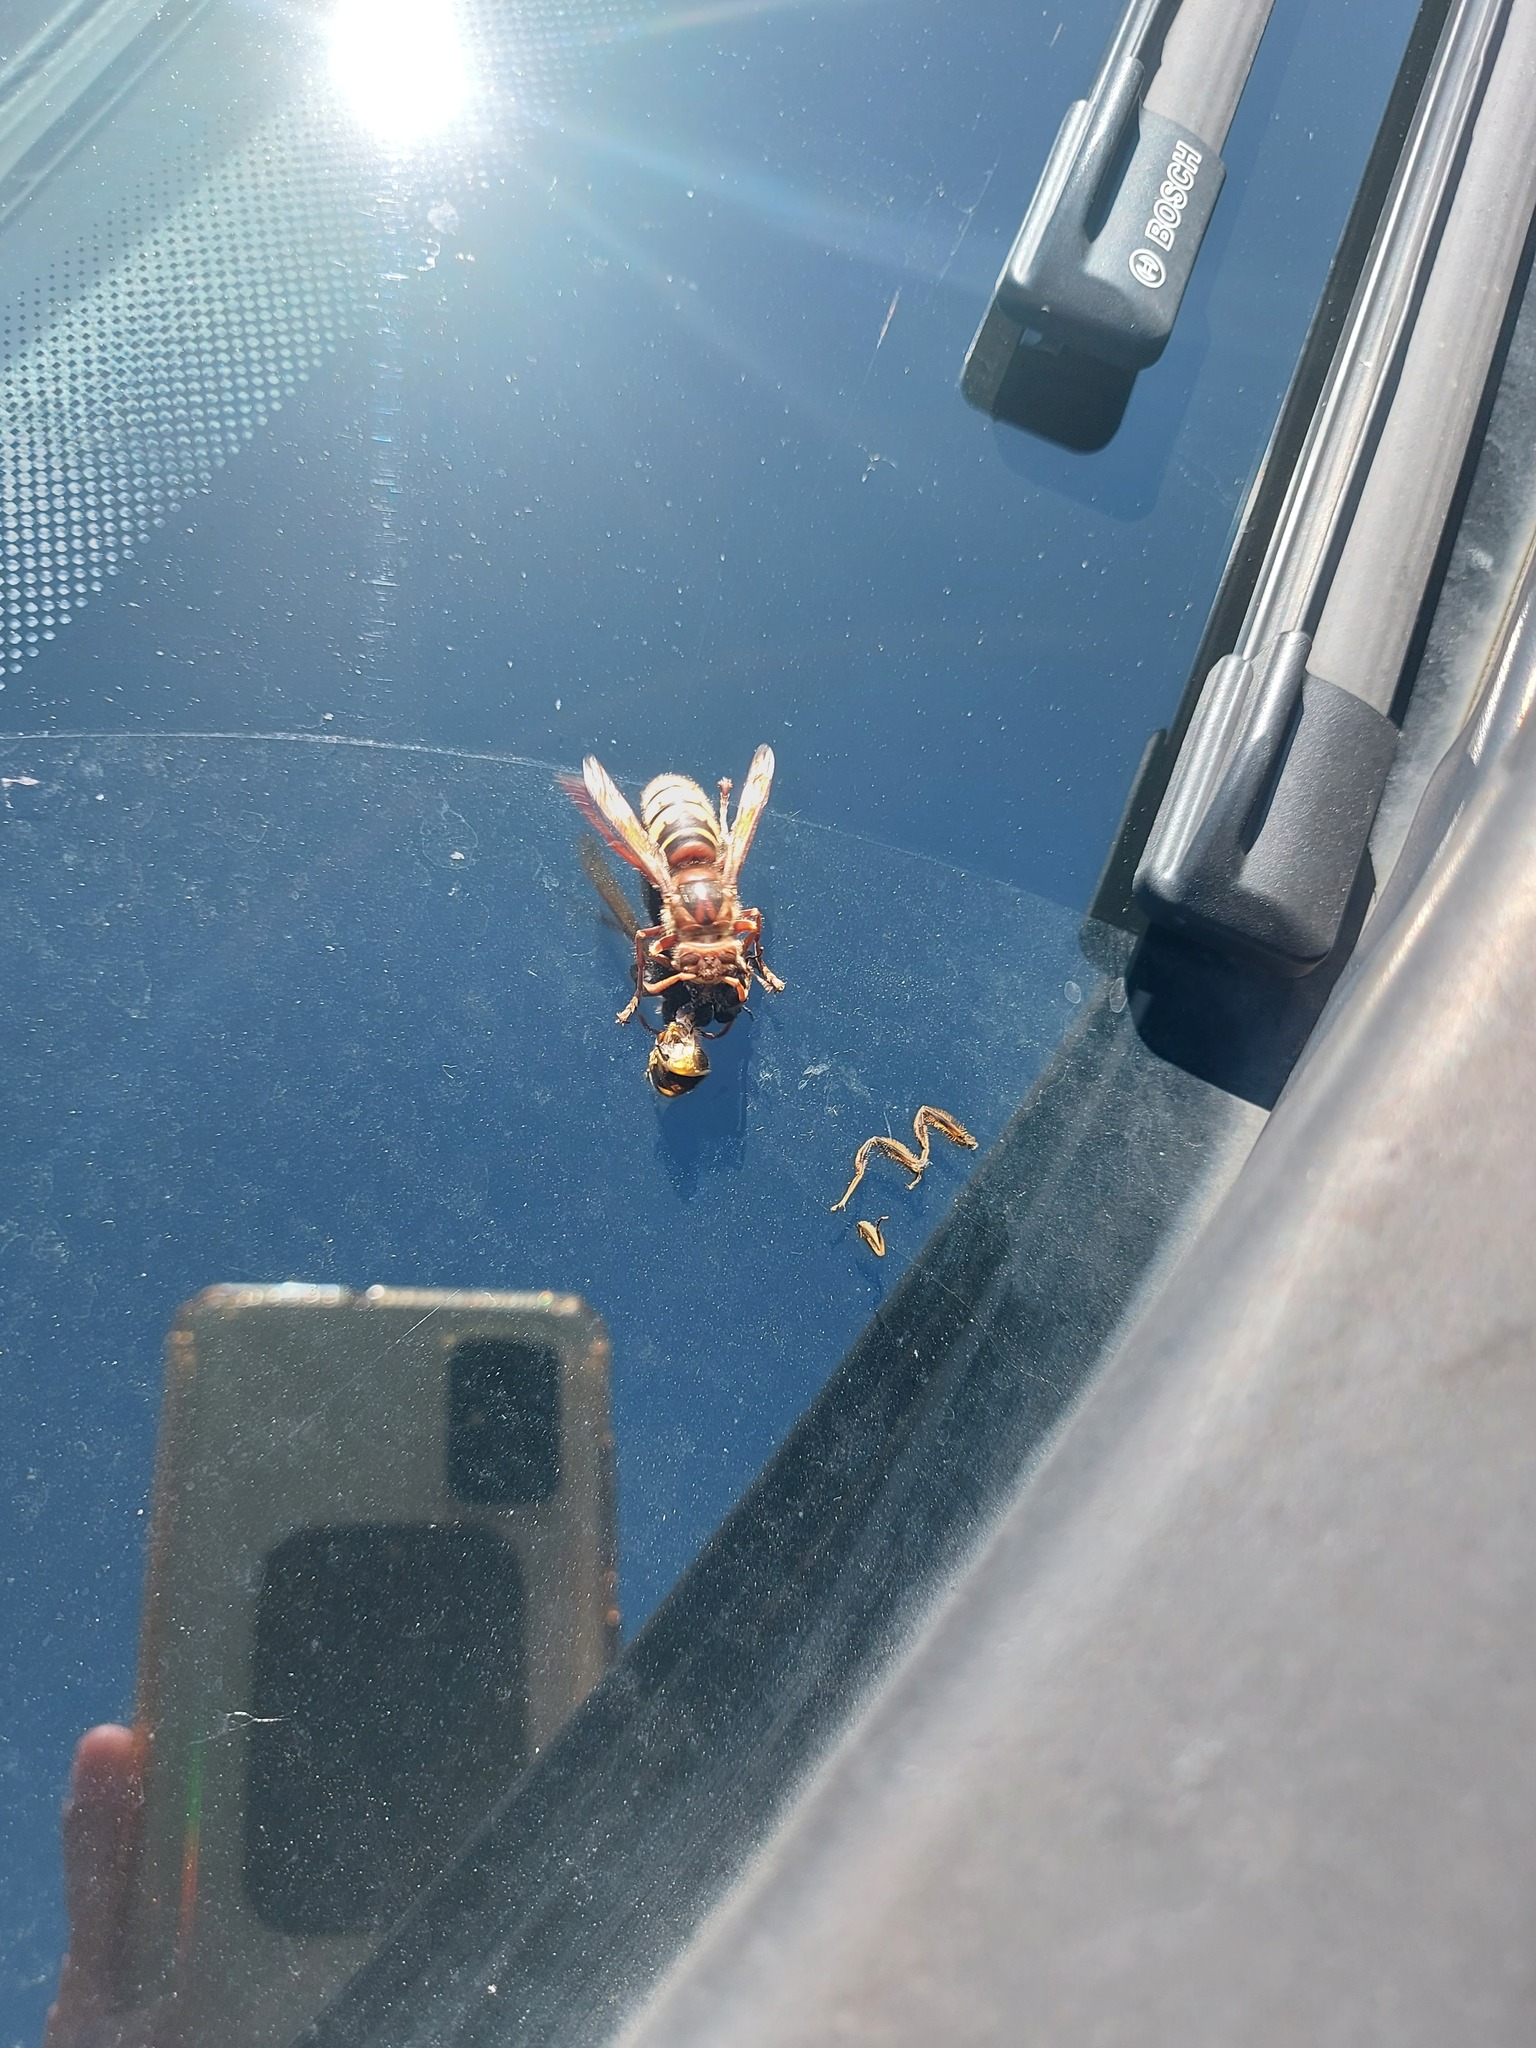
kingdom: Animalia
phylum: Arthropoda
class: Insecta
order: Hymenoptera
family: Vespidae
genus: Vespa
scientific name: Vespa crabro
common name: Hornet
